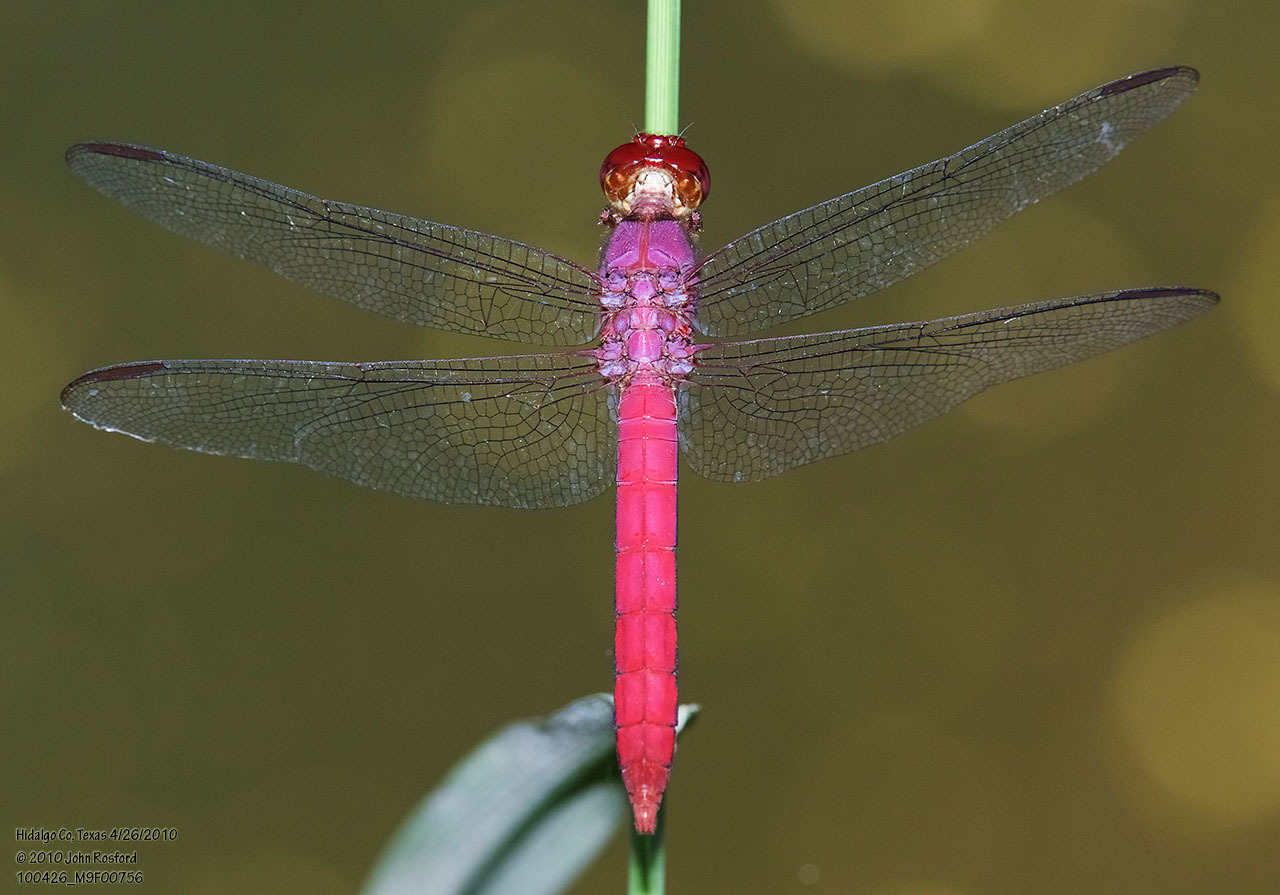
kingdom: Animalia
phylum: Arthropoda
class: Insecta
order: Odonata
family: Libellulidae
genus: Orthemis
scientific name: Orthemis discolor
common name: Carmine skimmer
